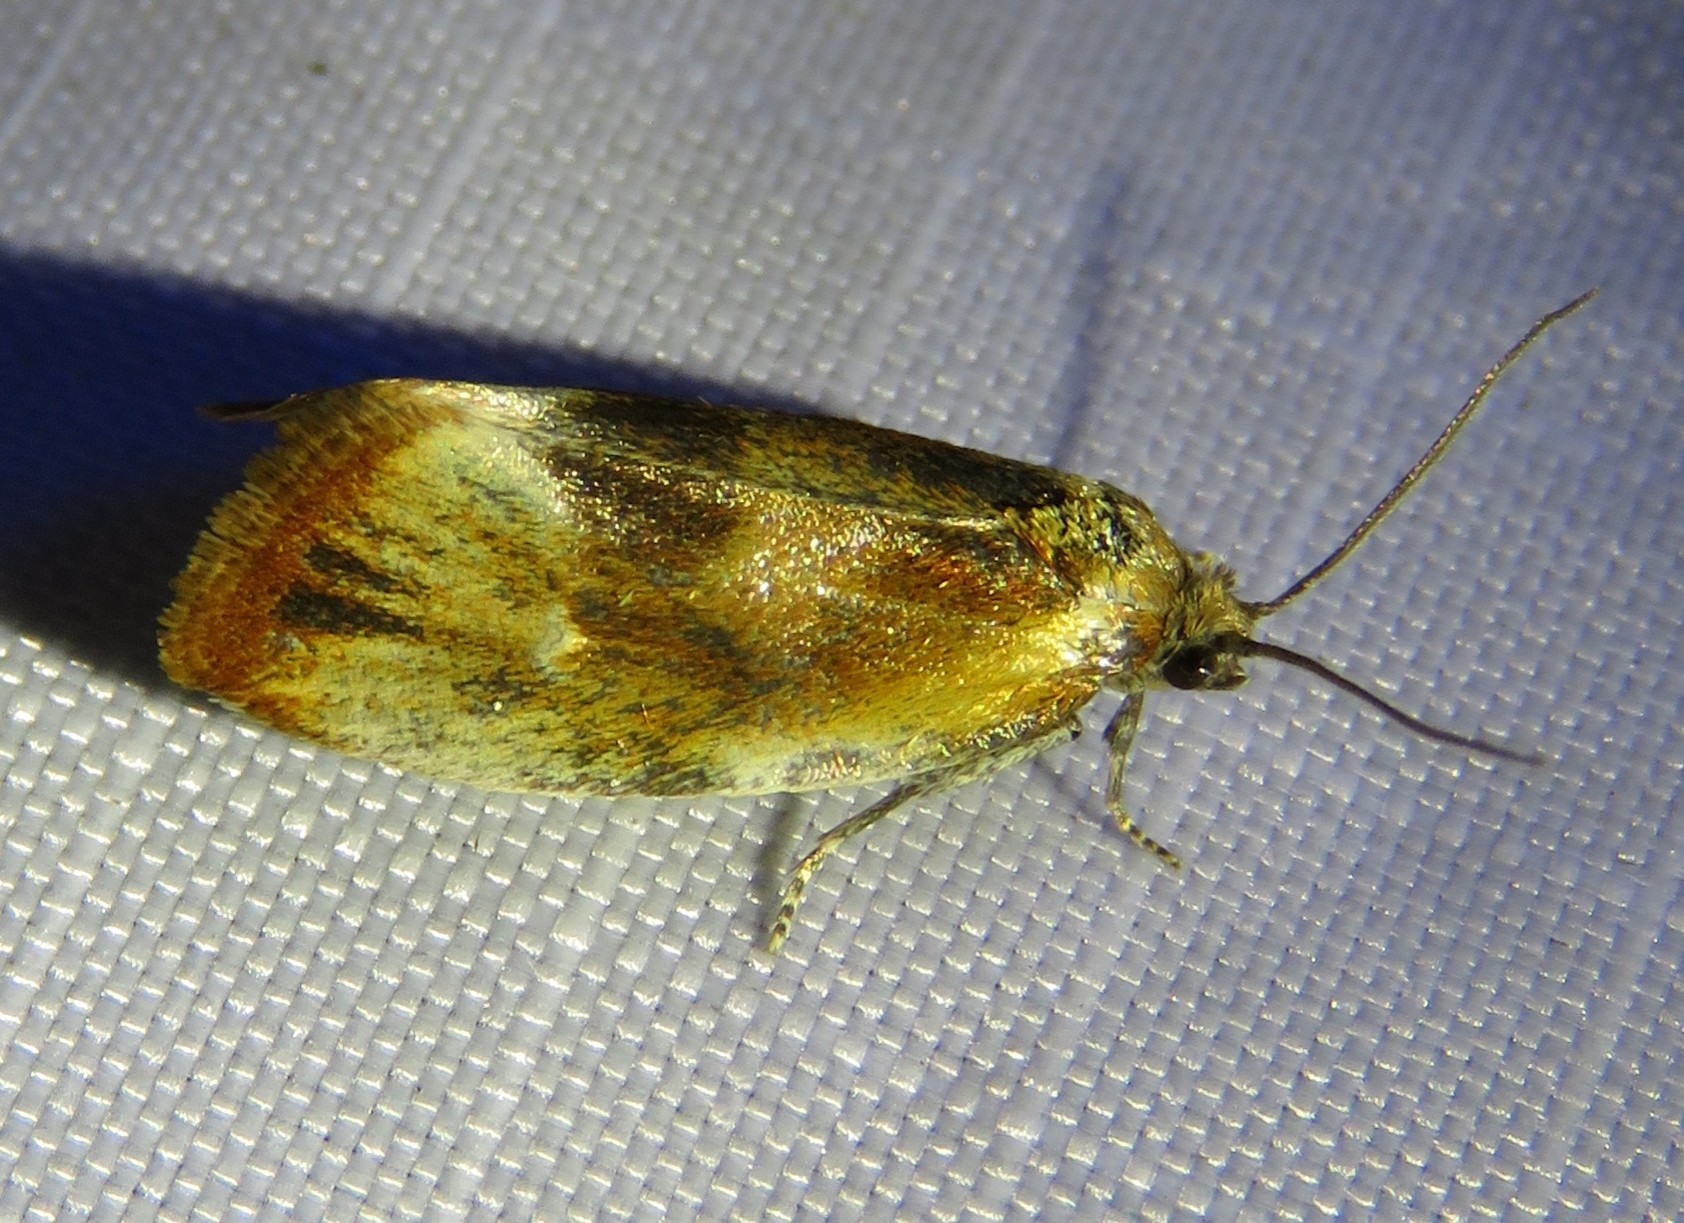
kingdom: Animalia
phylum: Arthropoda
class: Insecta
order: Lepidoptera
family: Tortricidae
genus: Eulia
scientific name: Eulia ministrana
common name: Brassy twist
